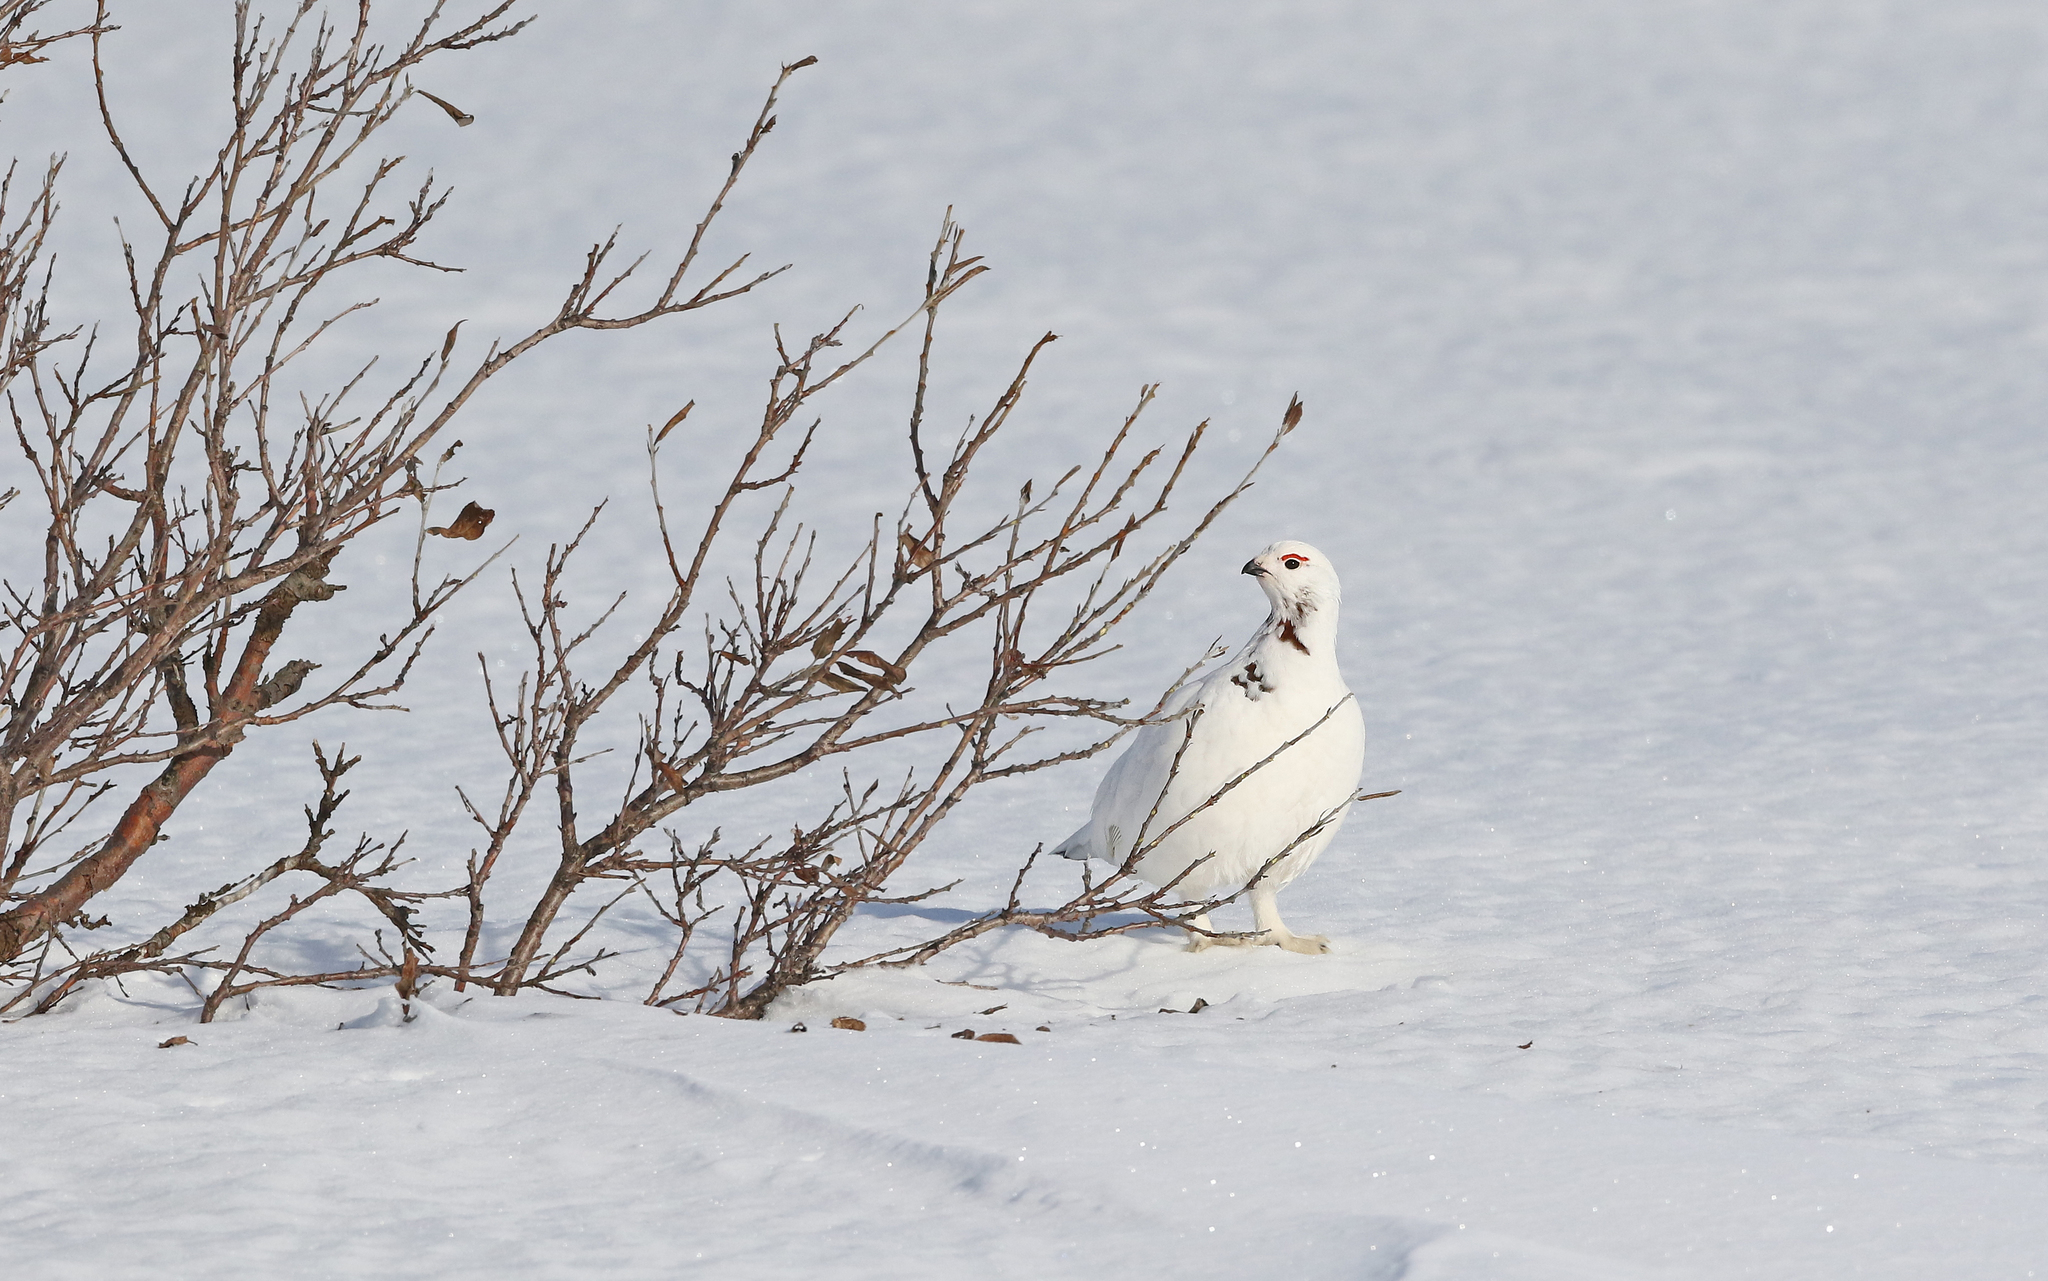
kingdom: Animalia
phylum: Chordata
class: Aves
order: Galliformes
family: Phasianidae
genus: Lagopus
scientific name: Lagopus lagopus
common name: Willow ptarmigan
